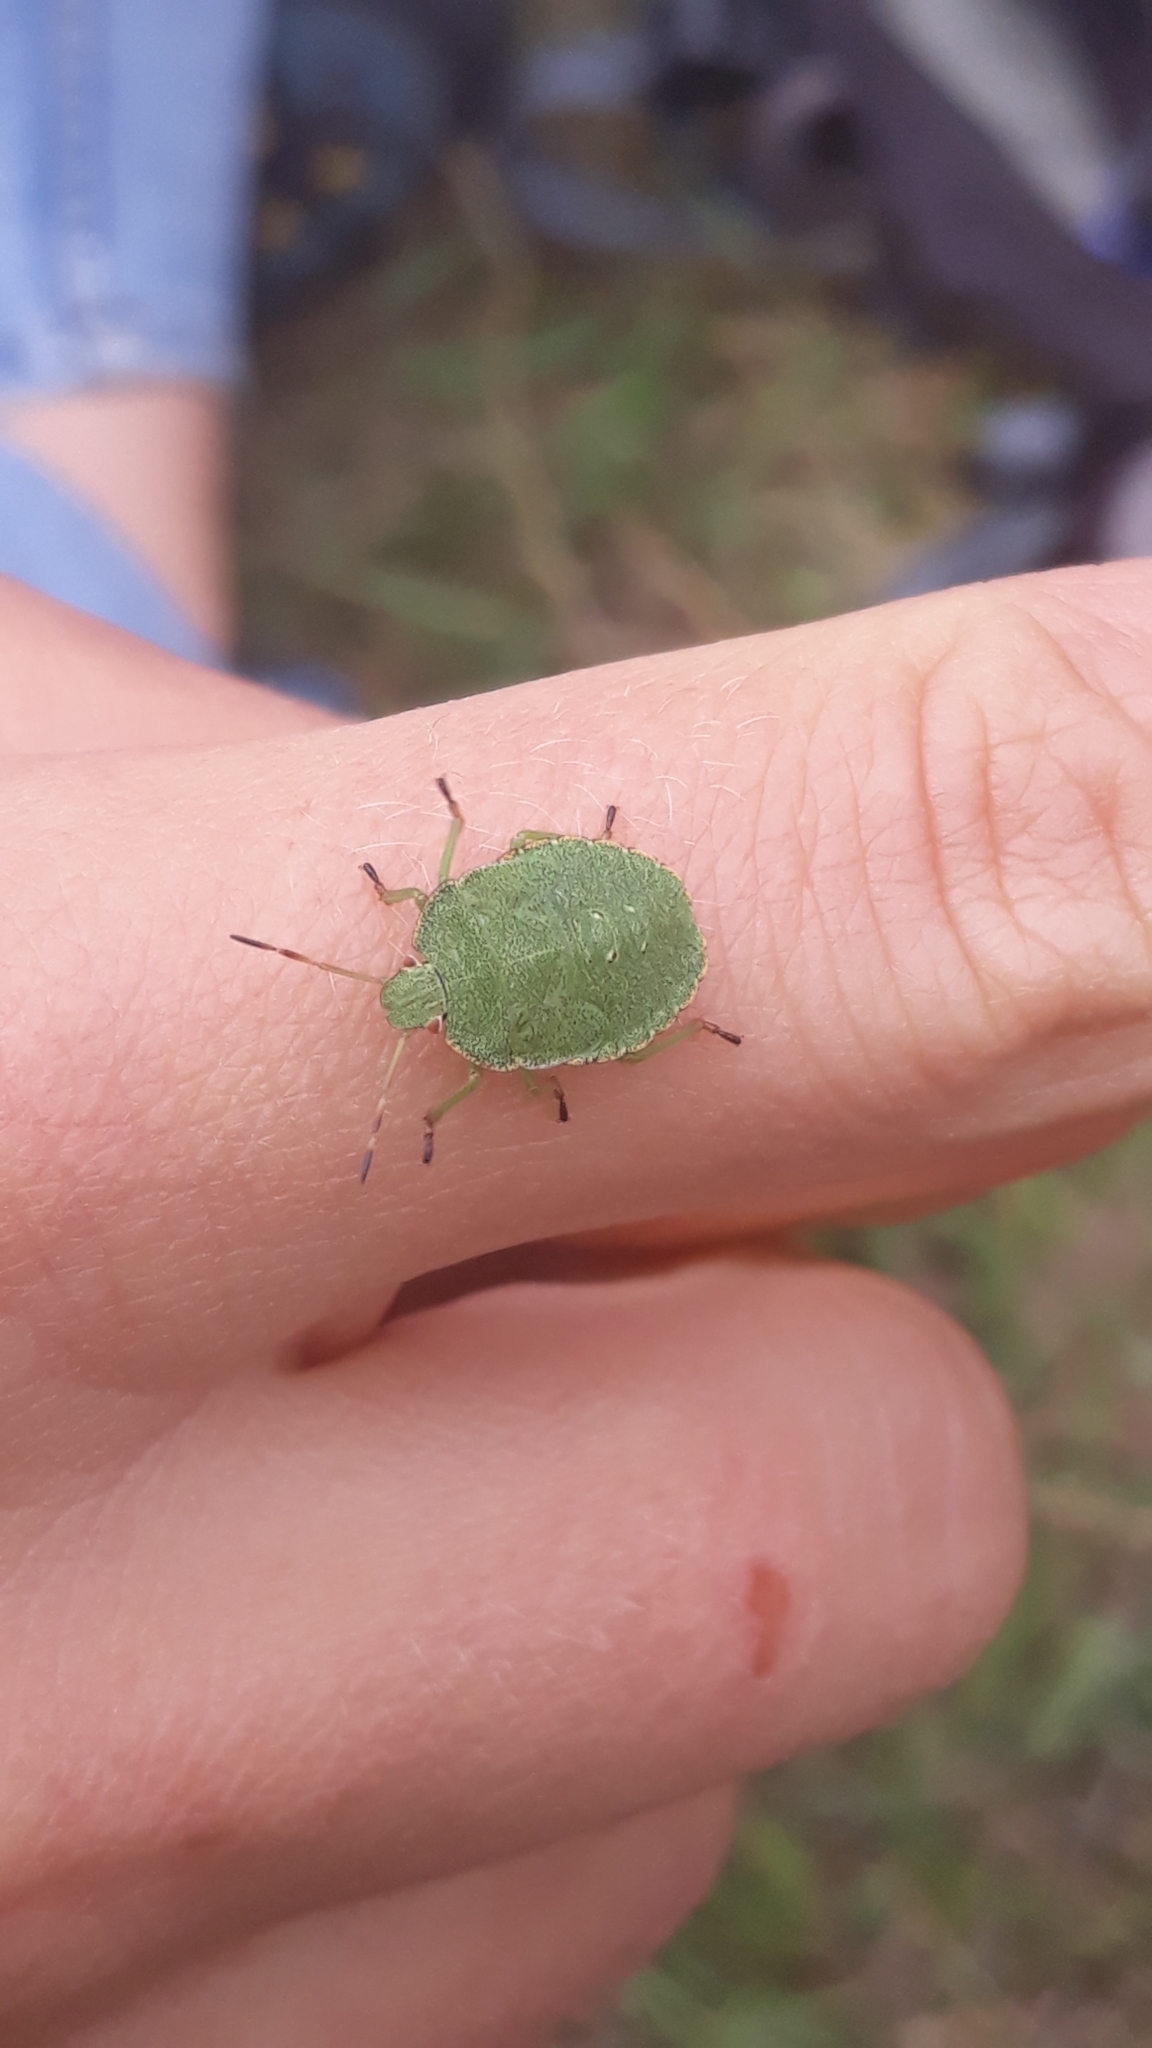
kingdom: Animalia
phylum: Arthropoda
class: Insecta
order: Hemiptera
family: Pentatomidae
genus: Palomena
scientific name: Palomena prasina
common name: Green shieldbug
